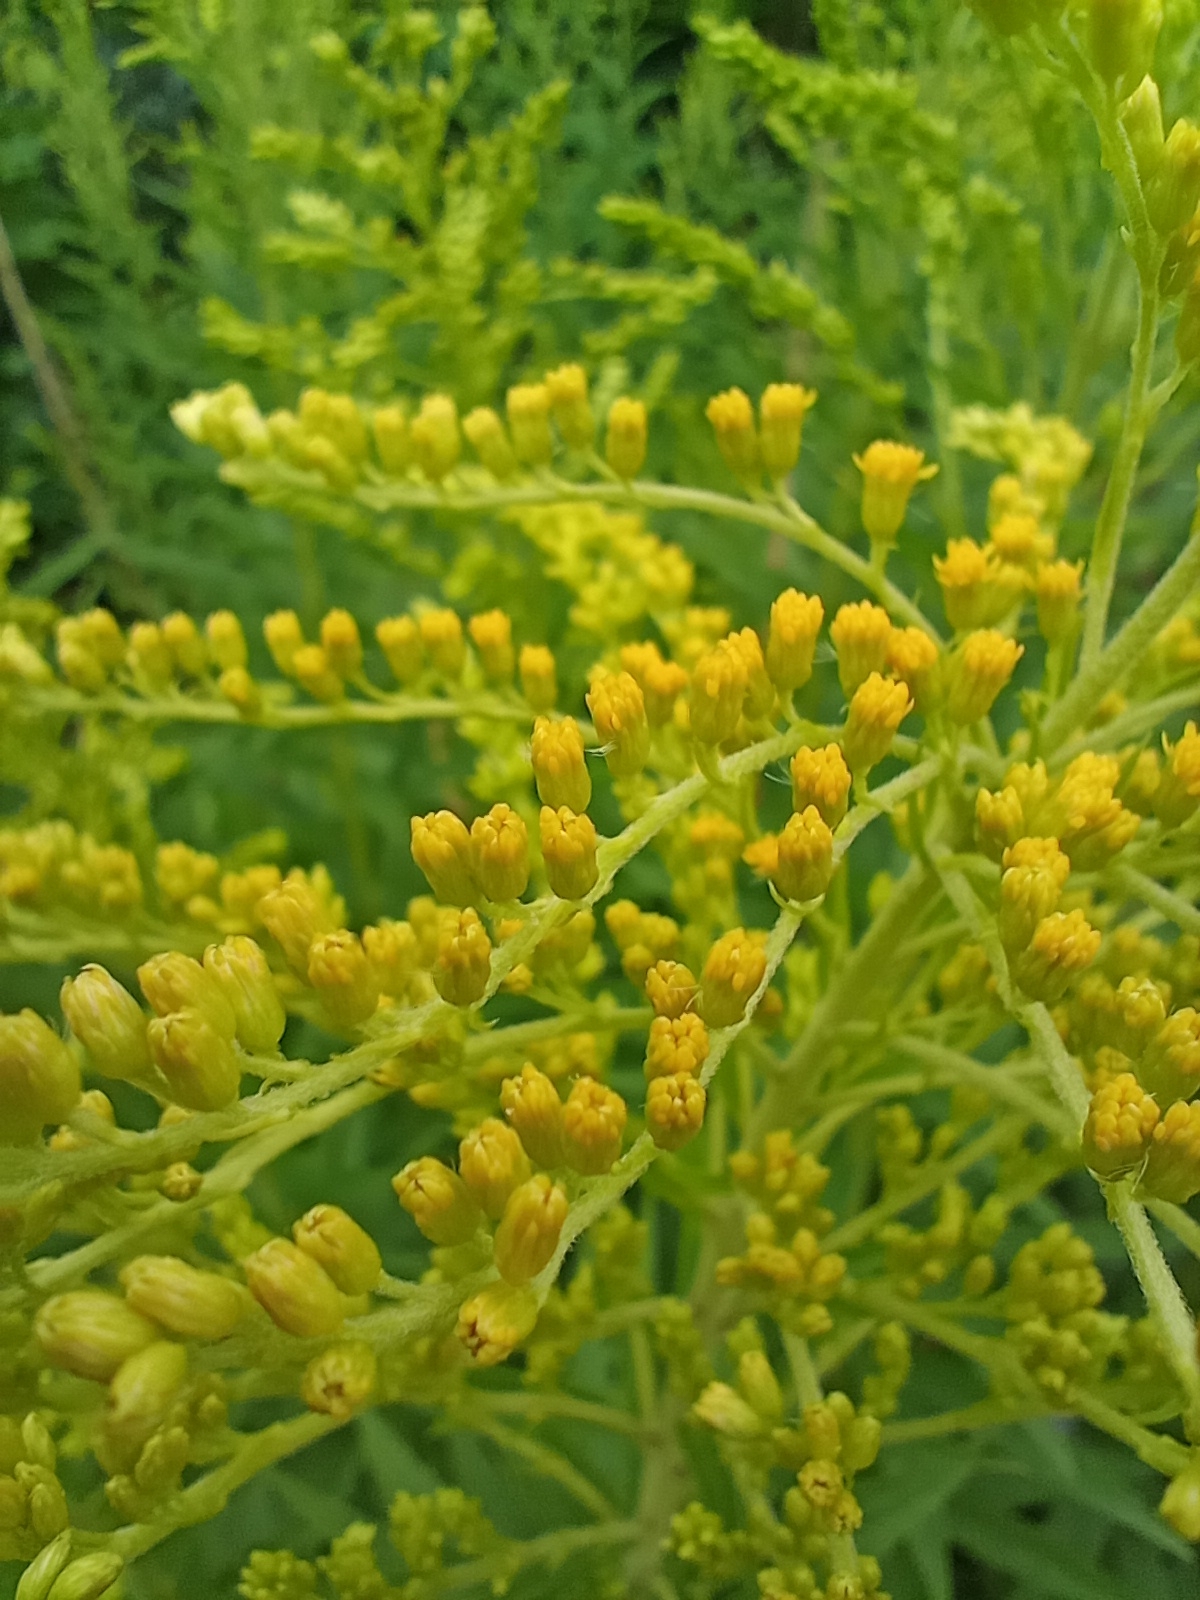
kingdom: Plantae
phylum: Tracheophyta
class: Magnoliopsida
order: Asterales
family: Asteraceae
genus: Solidago
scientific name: Solidago canadensis
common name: Canada goldenrod
